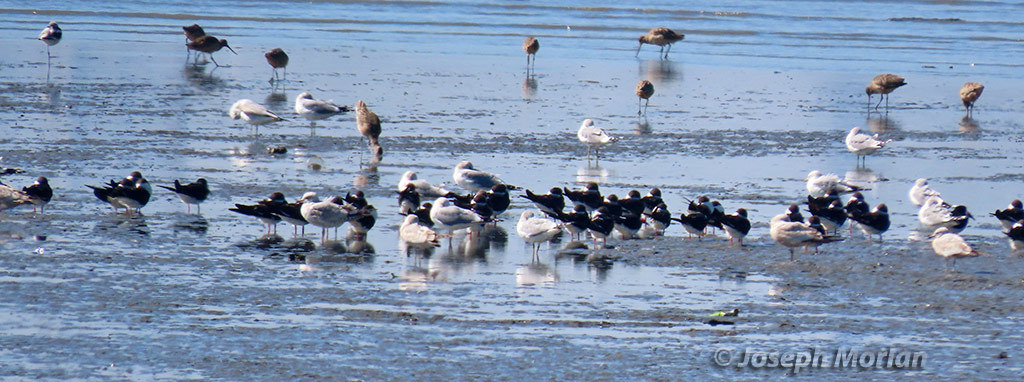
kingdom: Animalia
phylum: Chordata
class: Aves
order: Charadriiformes
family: Laridae
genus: Rynchops
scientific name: Rynchops niger
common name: Black skimmer
